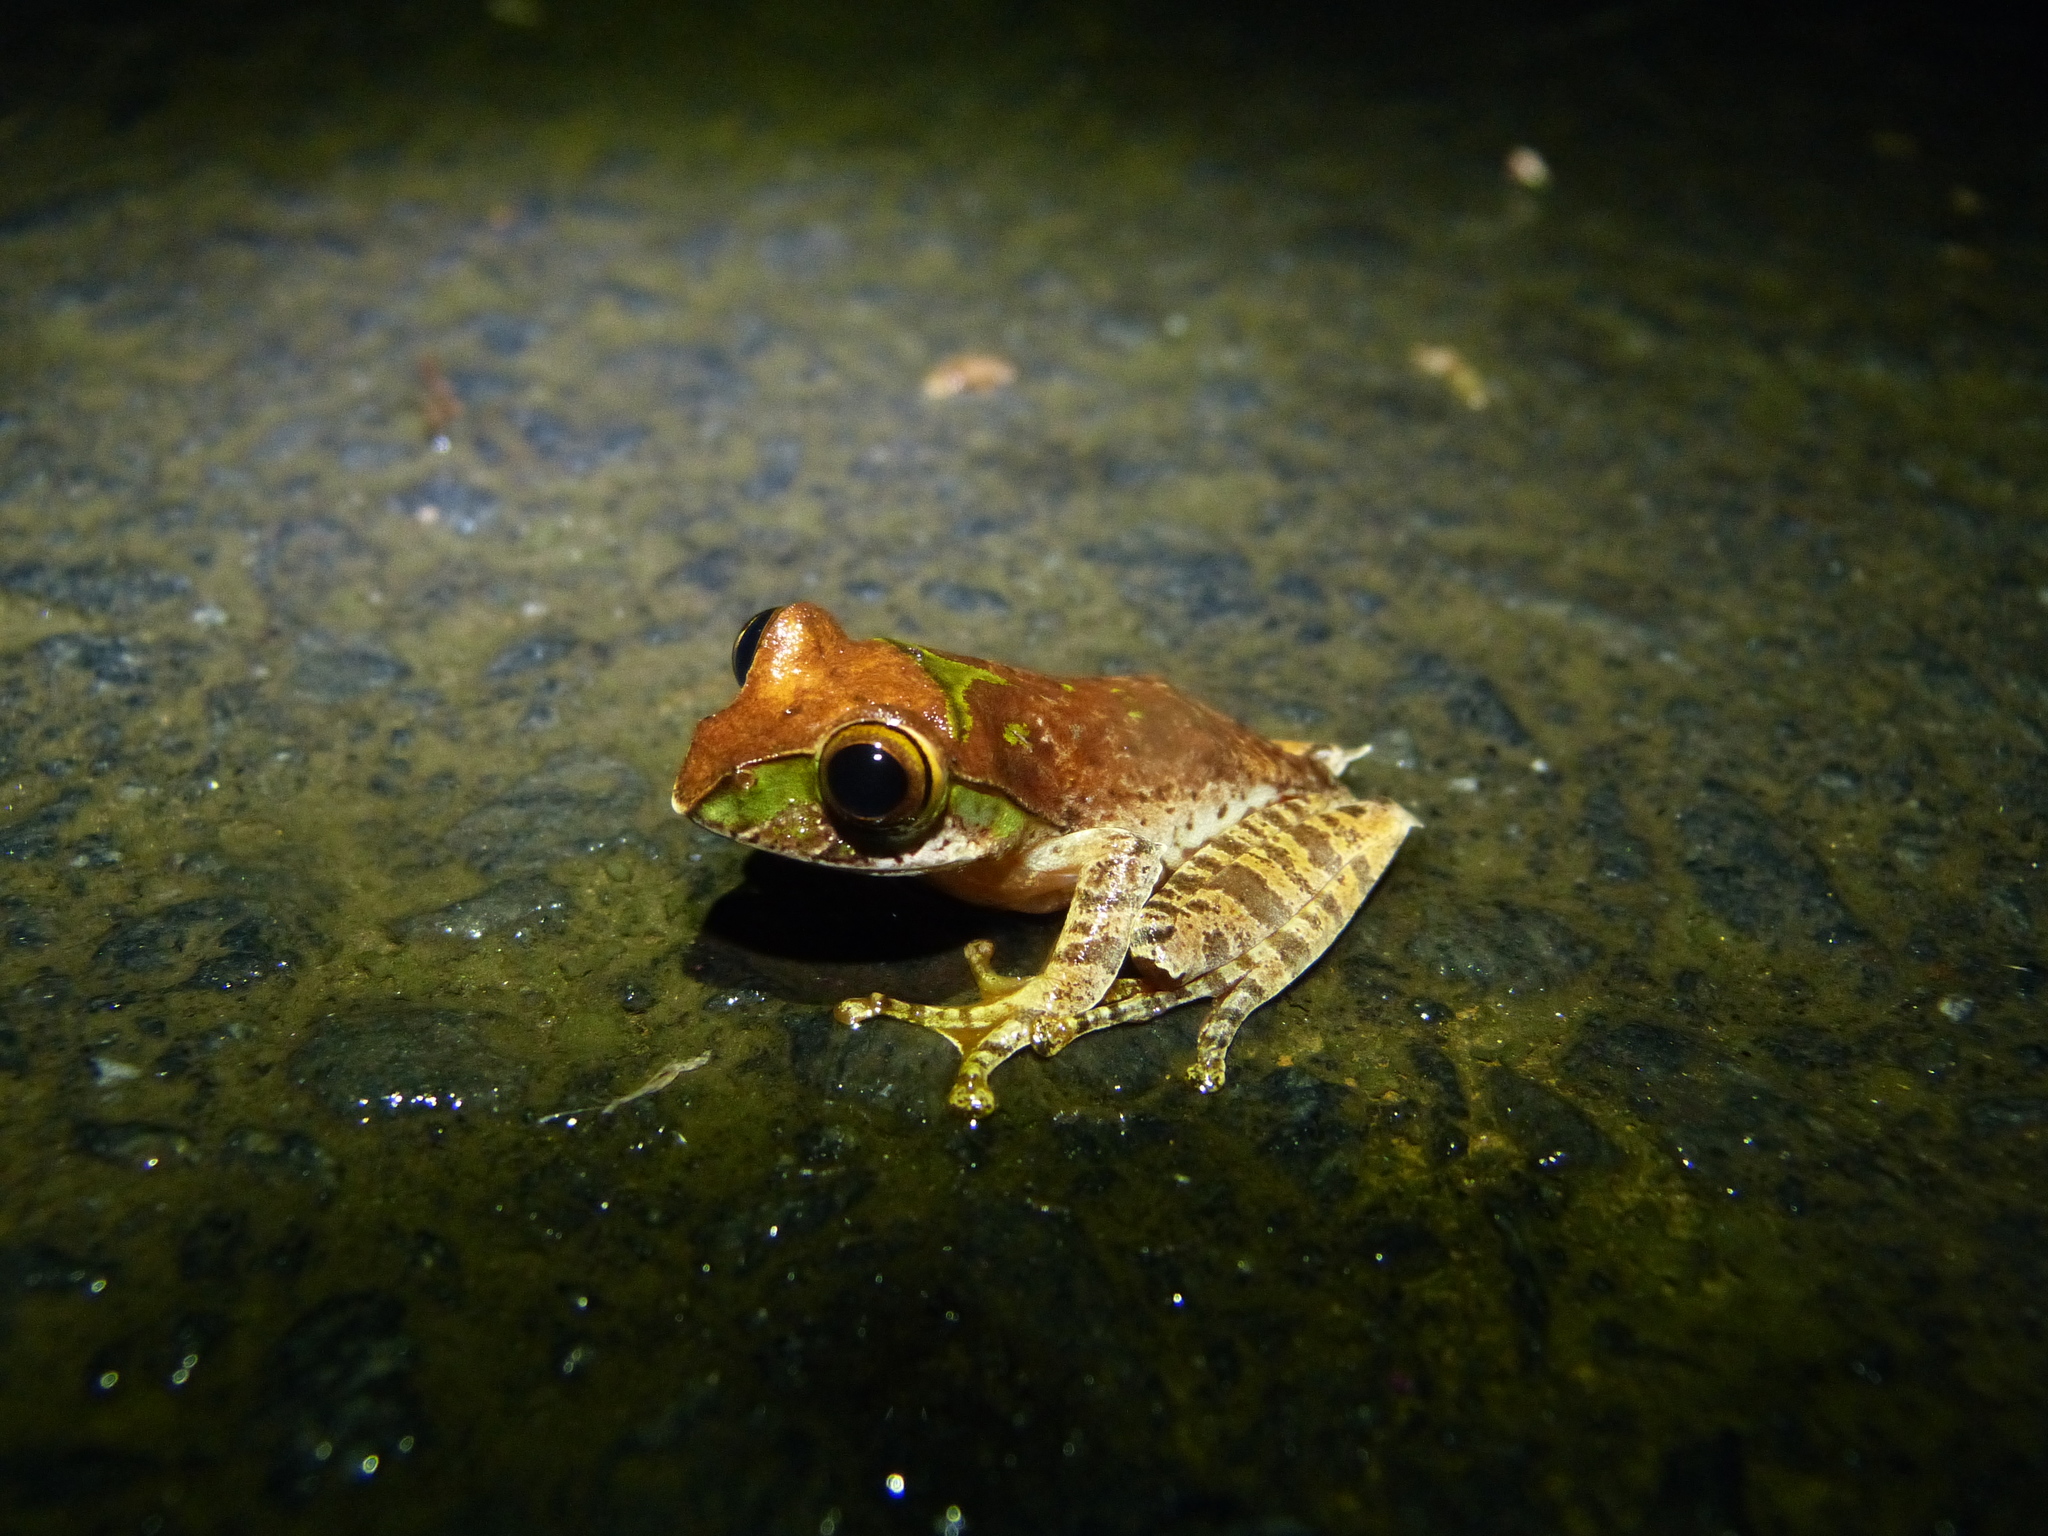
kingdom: Animalia
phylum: Chordata
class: Amphibia
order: Anura
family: Mantellidae
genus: Boophis
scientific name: Boophis madagascariensis
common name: Madagascar bright-eyed frog
